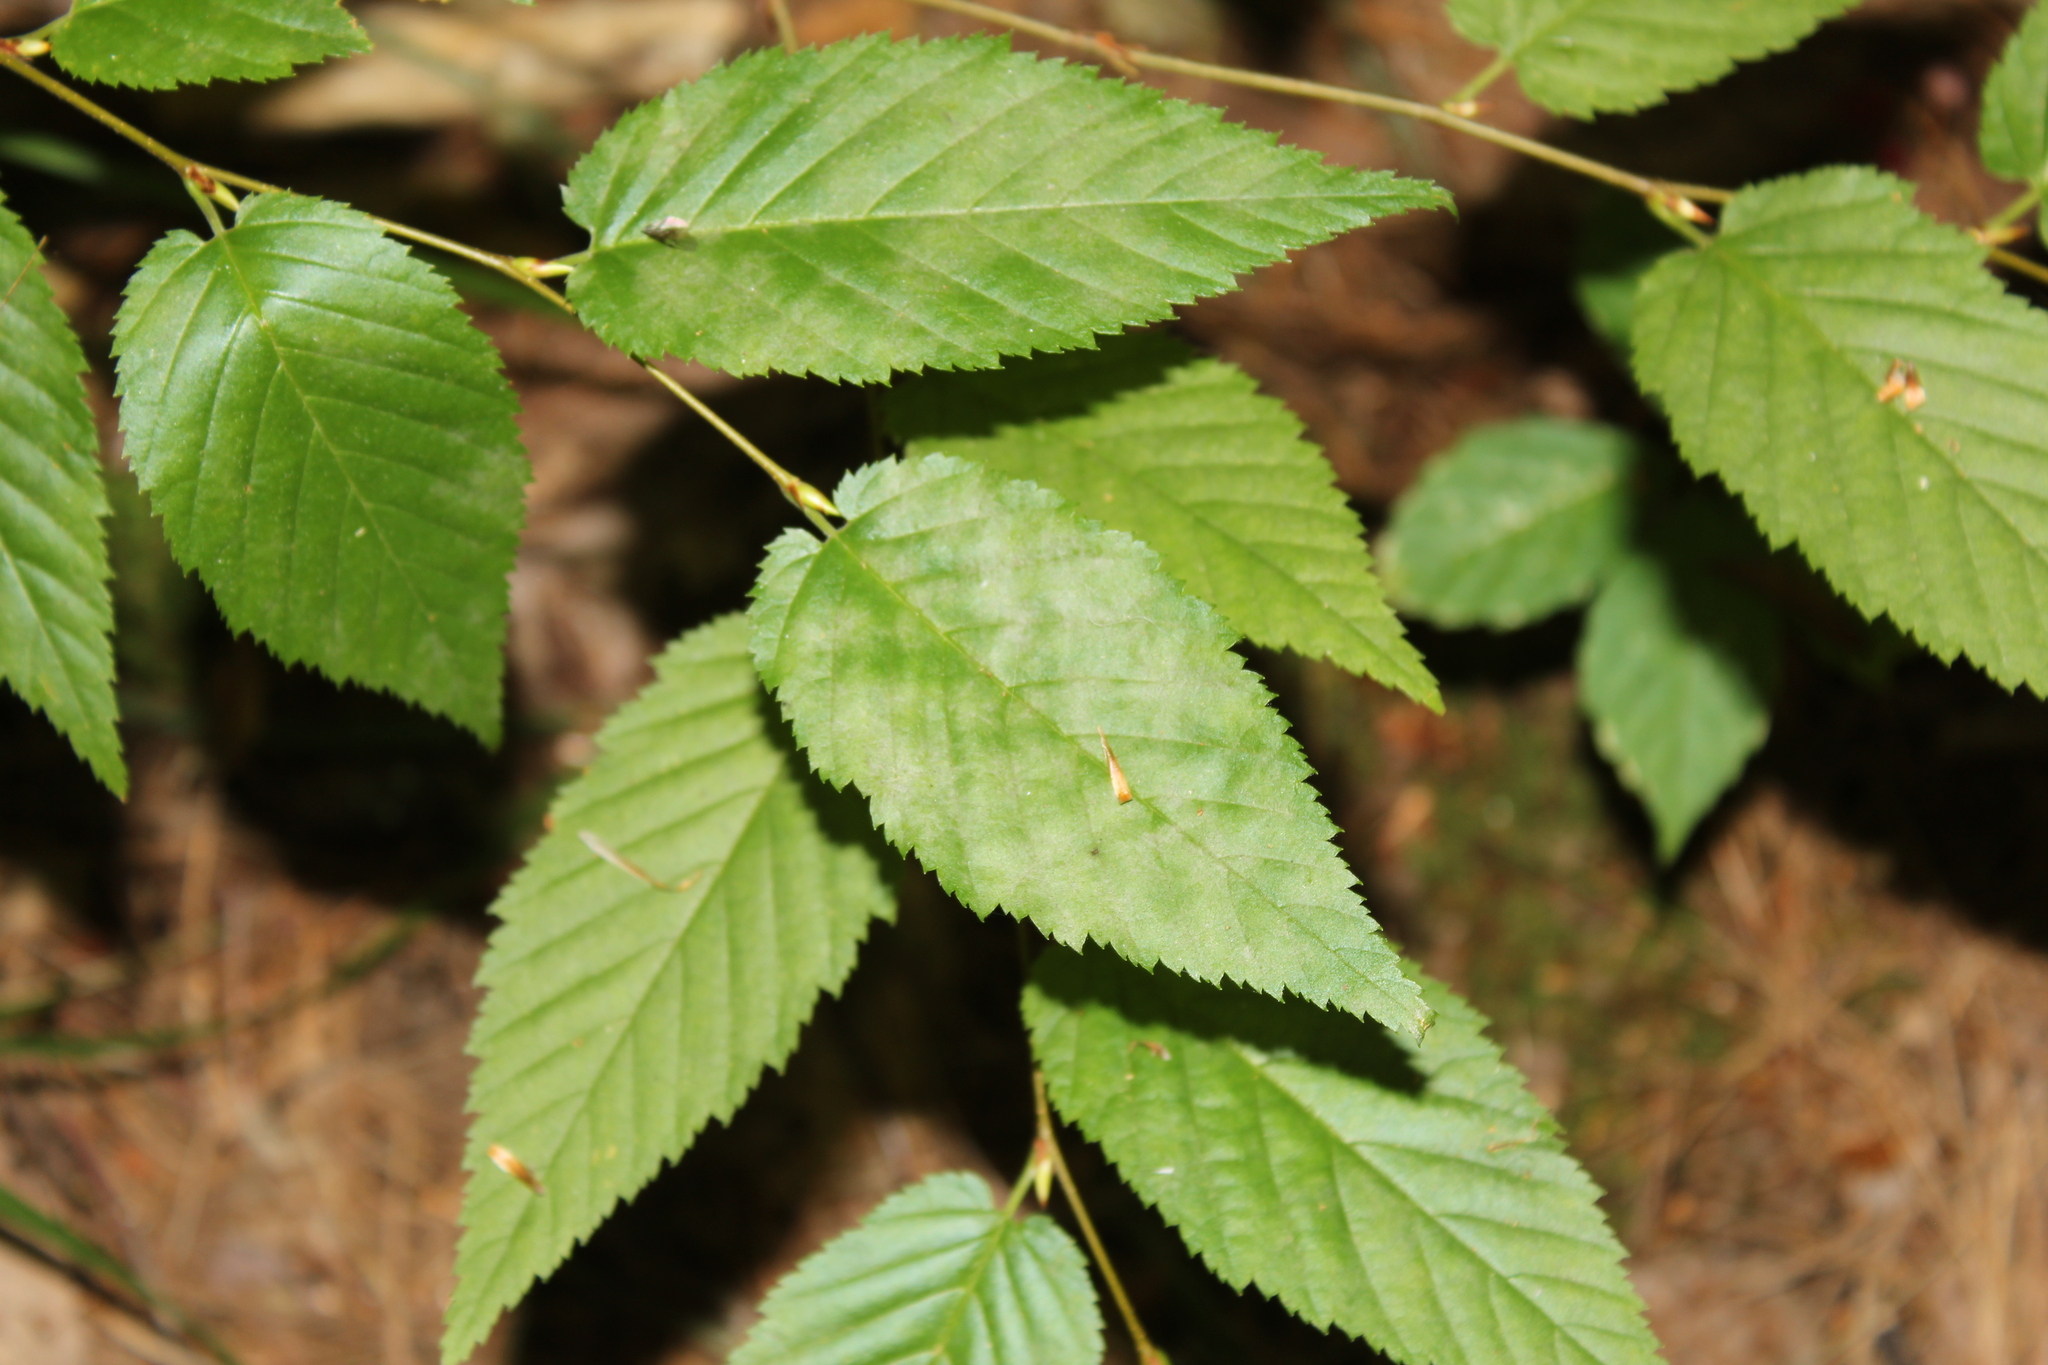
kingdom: Fungi
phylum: Ascomycota
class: Leotiomycetes
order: Helotiales
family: Erysiphaceae
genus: Erysiphe
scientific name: Erysiphe ostryae
